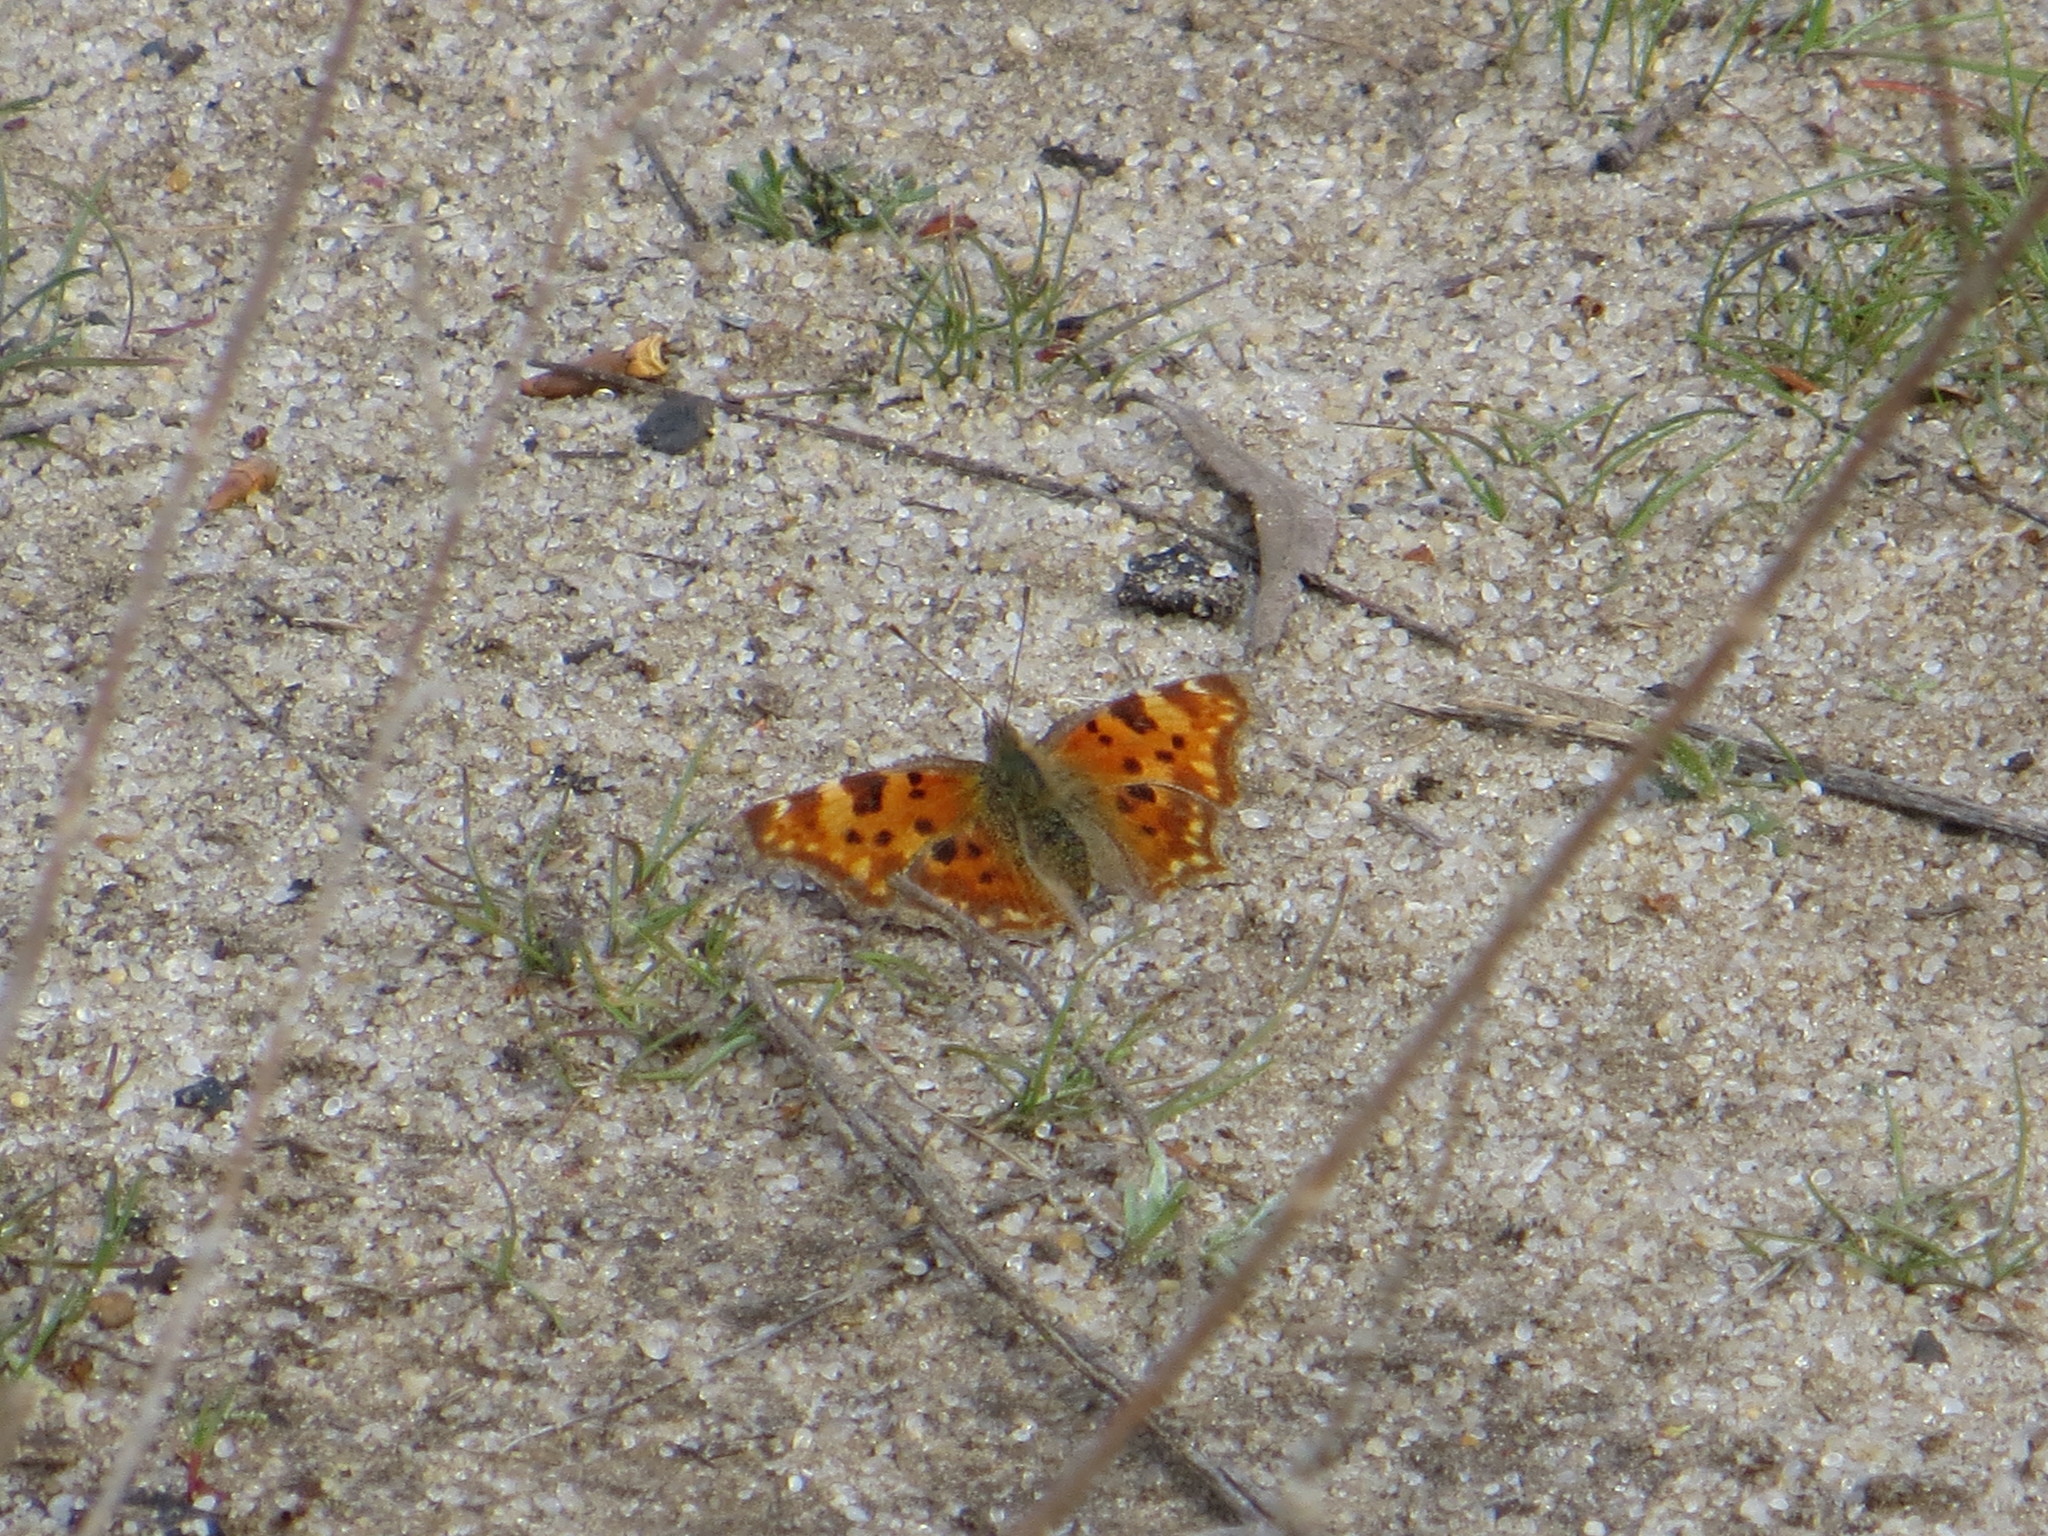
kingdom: Animalia
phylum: Arthropoda
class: Insecta
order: Lepidoptera
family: Nymphalidae
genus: Polygonia
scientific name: Polygonia c-album
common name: Comma
